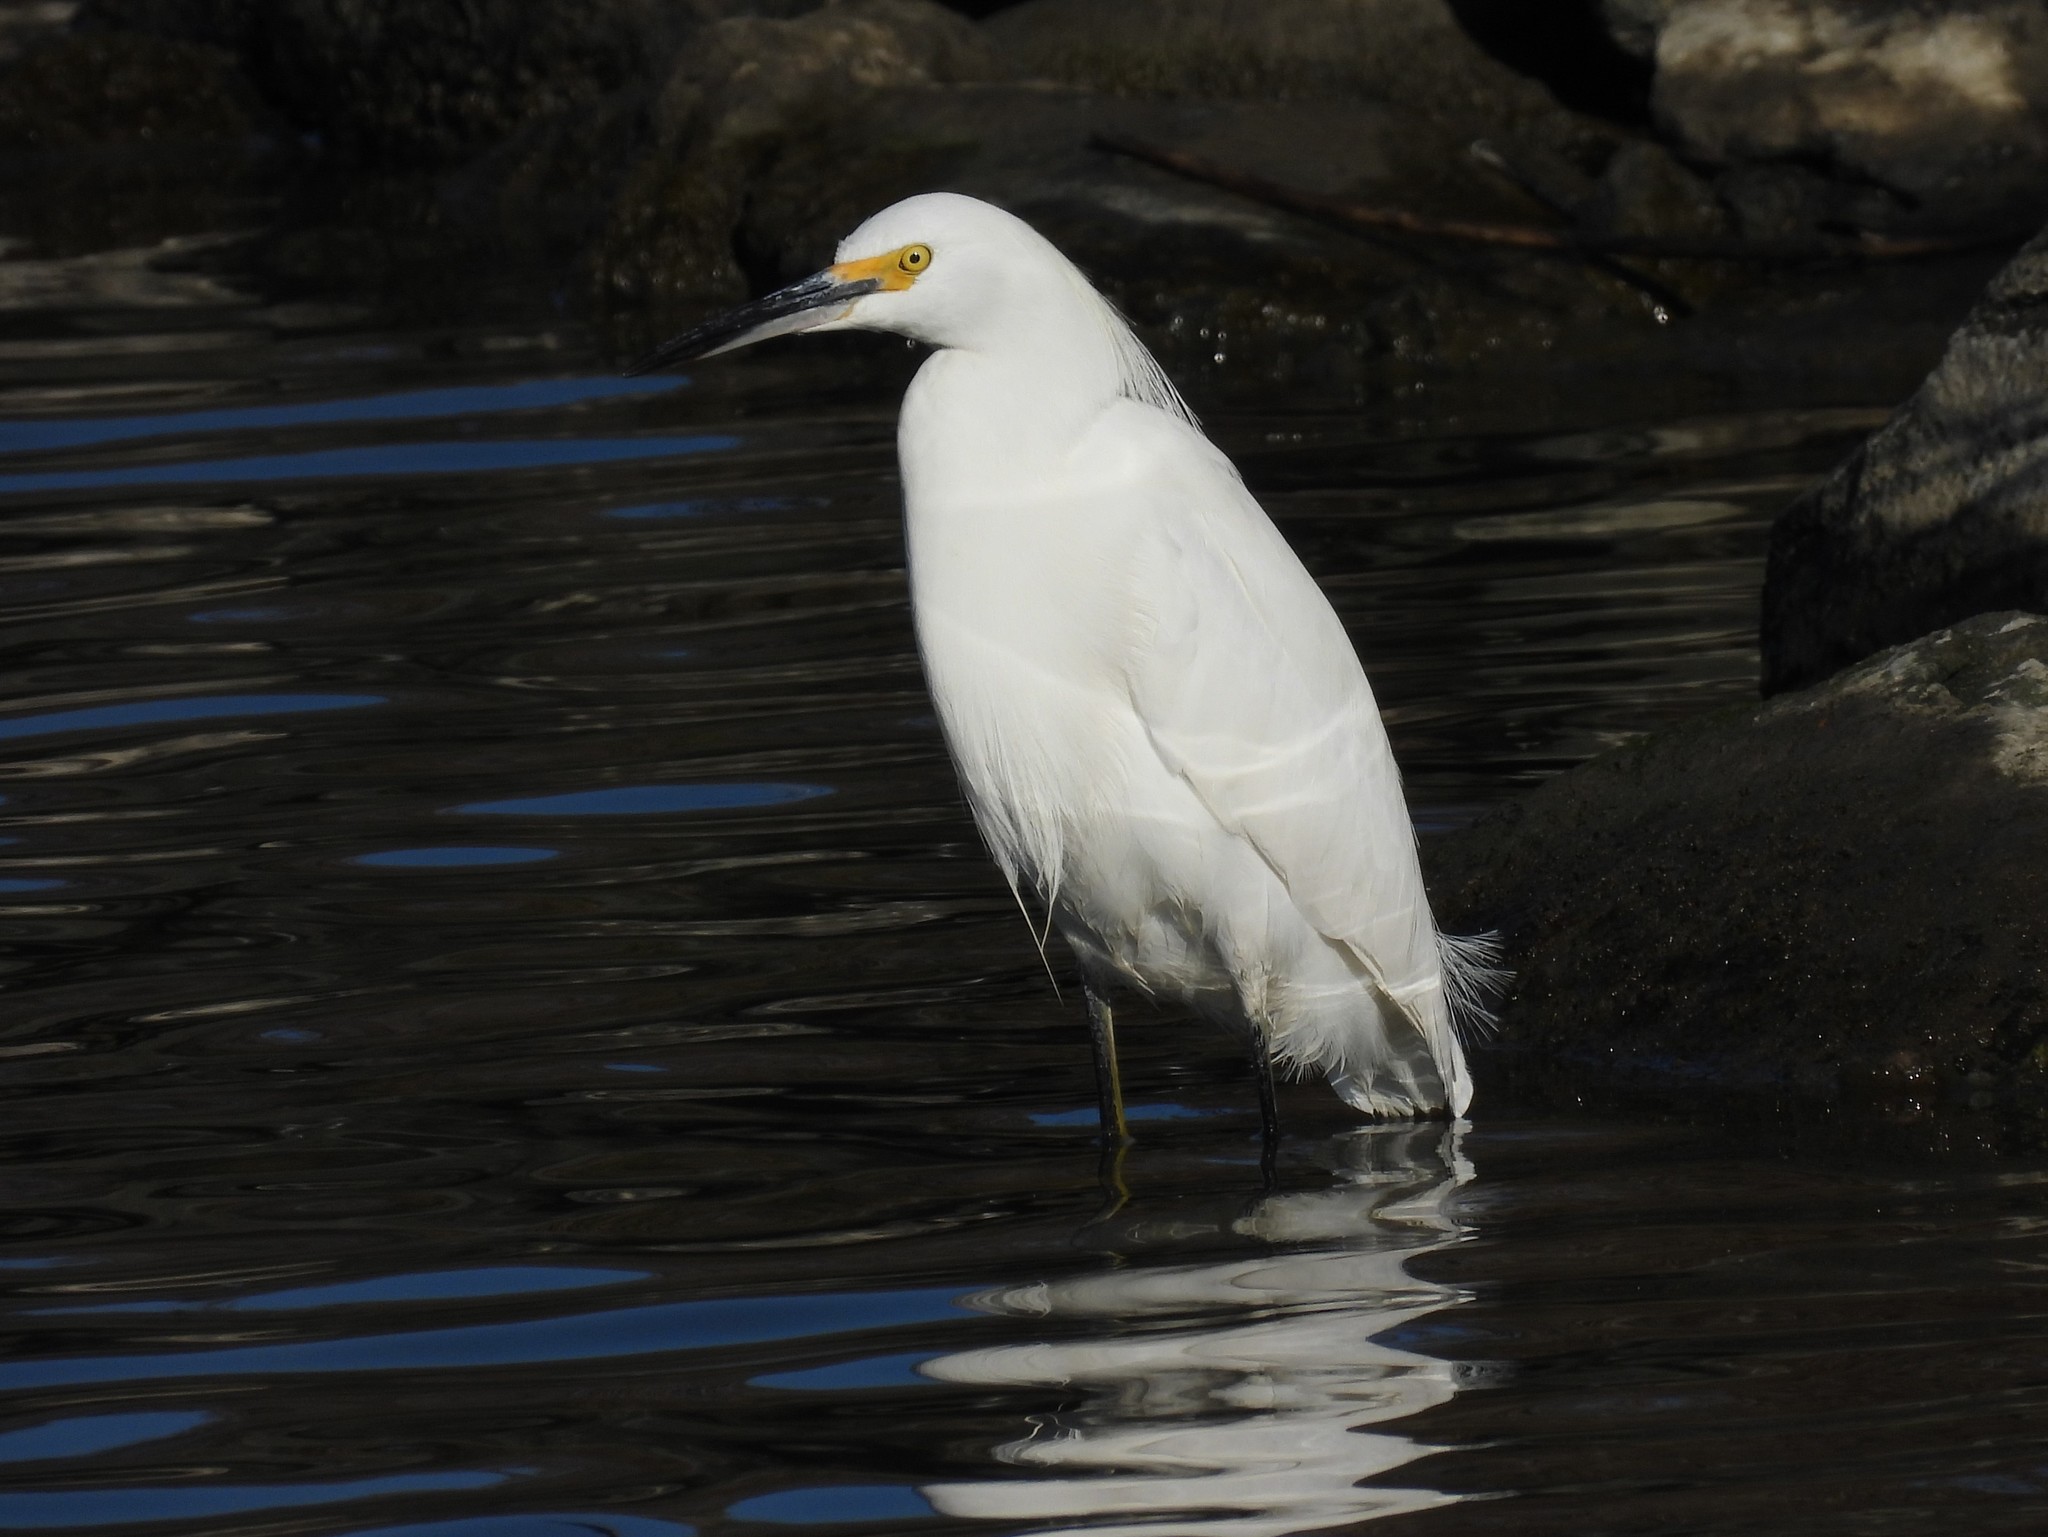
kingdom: Animalia
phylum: Chordata
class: Aves
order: Pelecaniformes
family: Ardeidae
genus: Egretta
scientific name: Egretta thula
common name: Snowy egret
